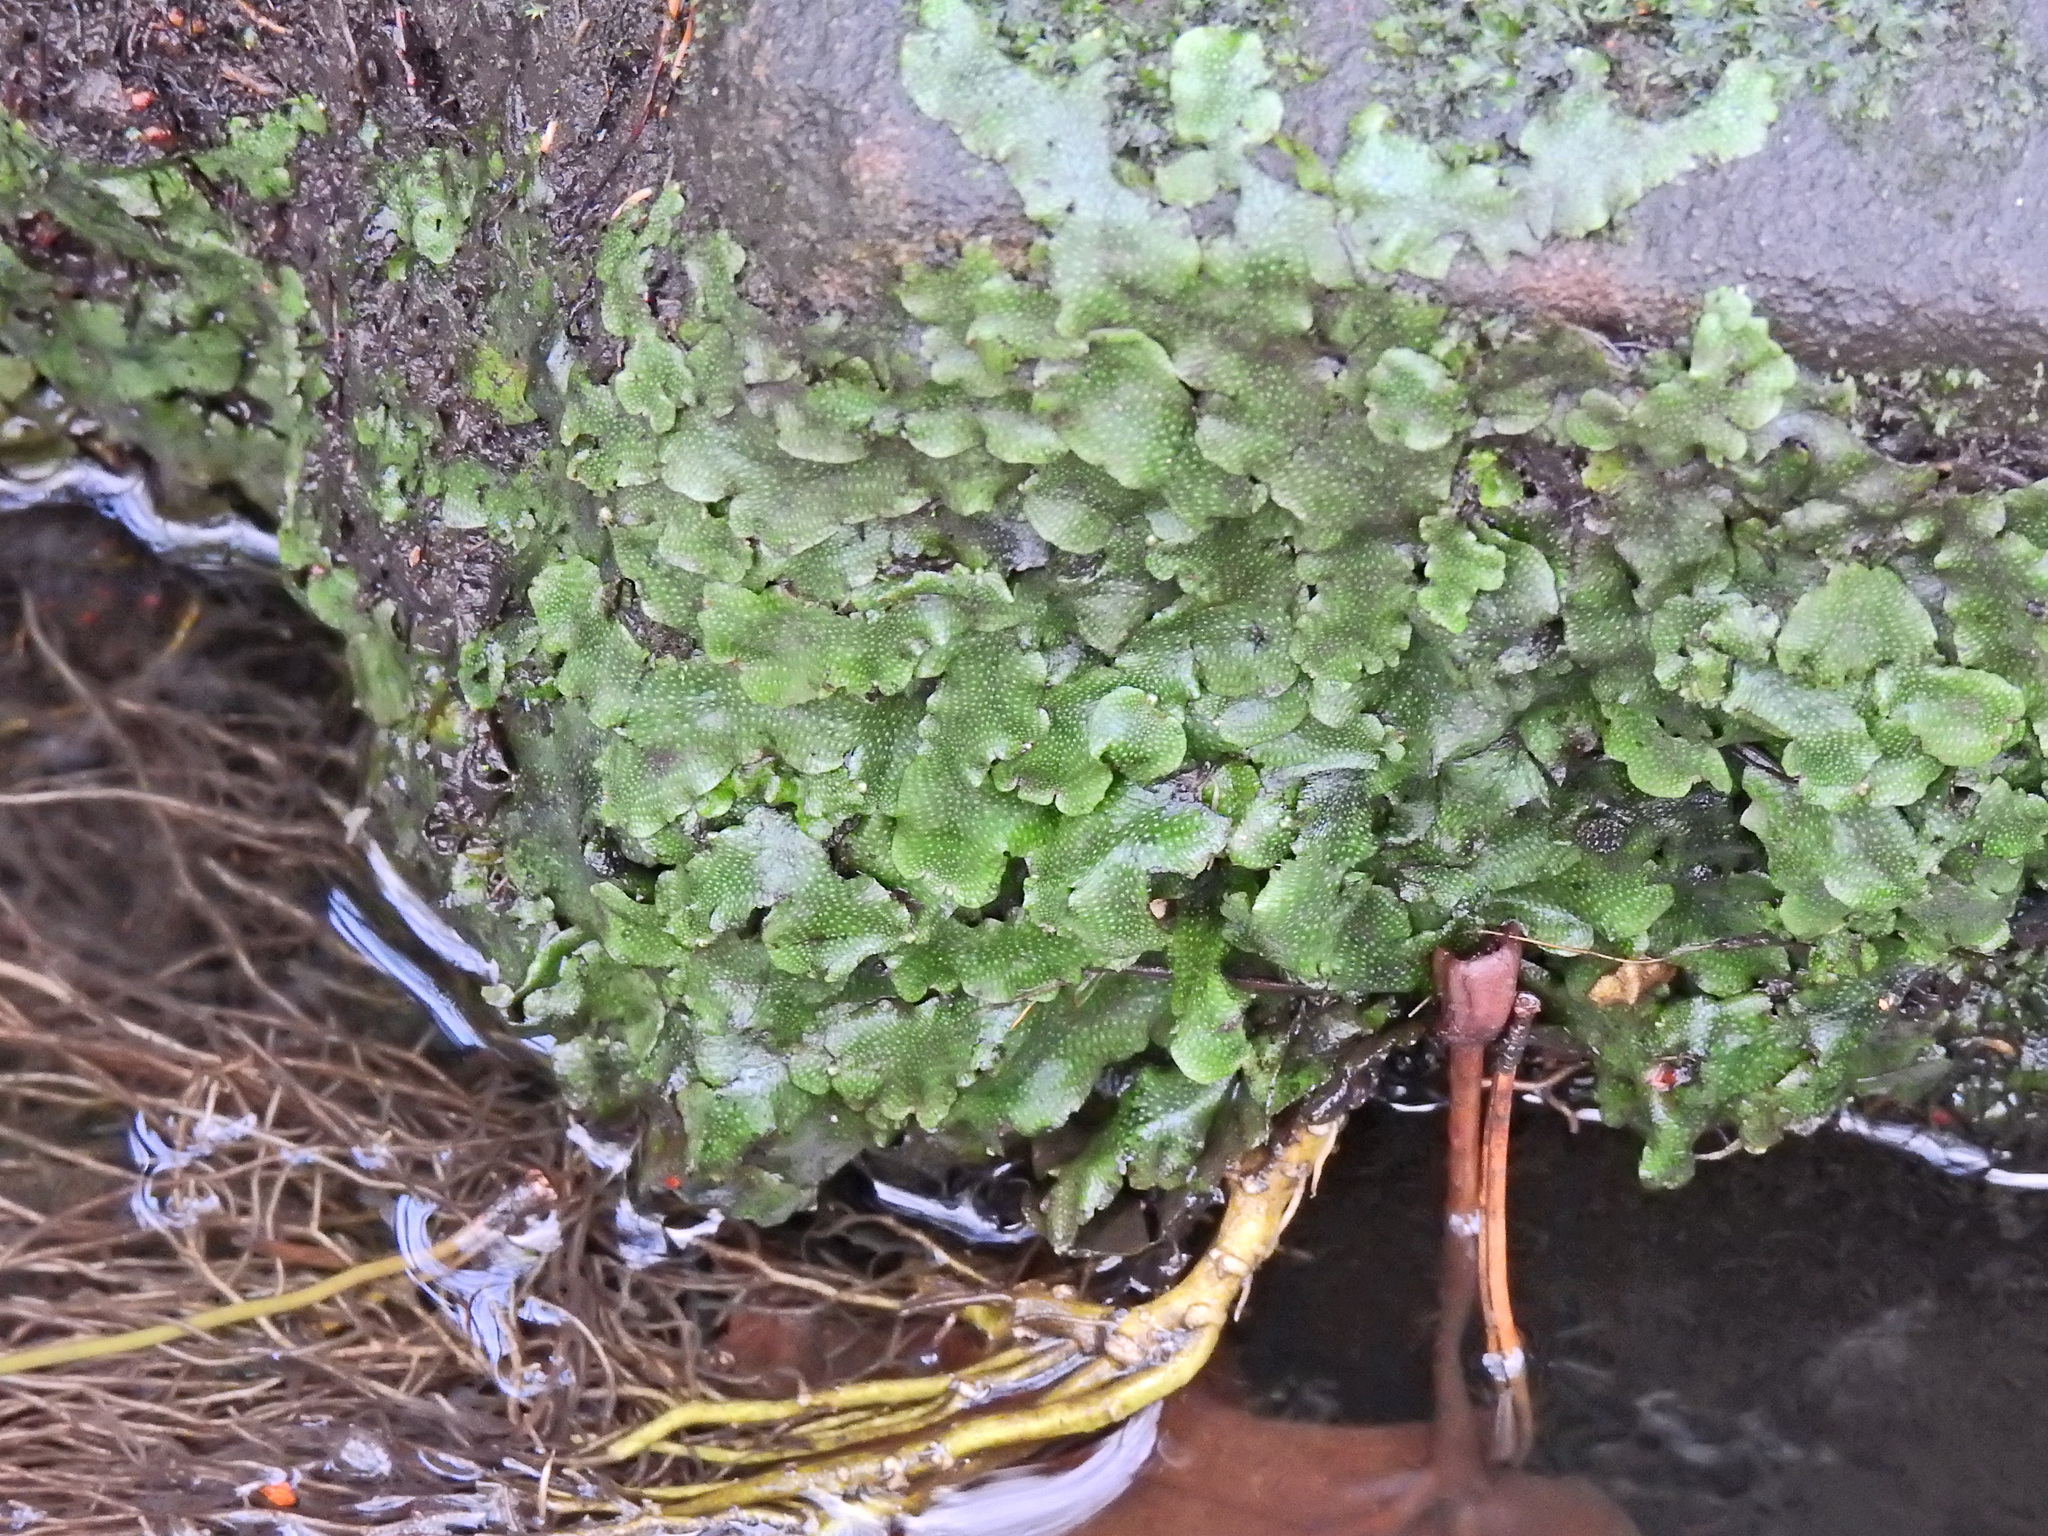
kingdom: Plantae
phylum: Marchantiophyta
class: Marchantiopsida
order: Marchantiales
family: Conocephalaceae
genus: Conocephalum
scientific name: Conocephalum conicum
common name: Great scented liverwort
